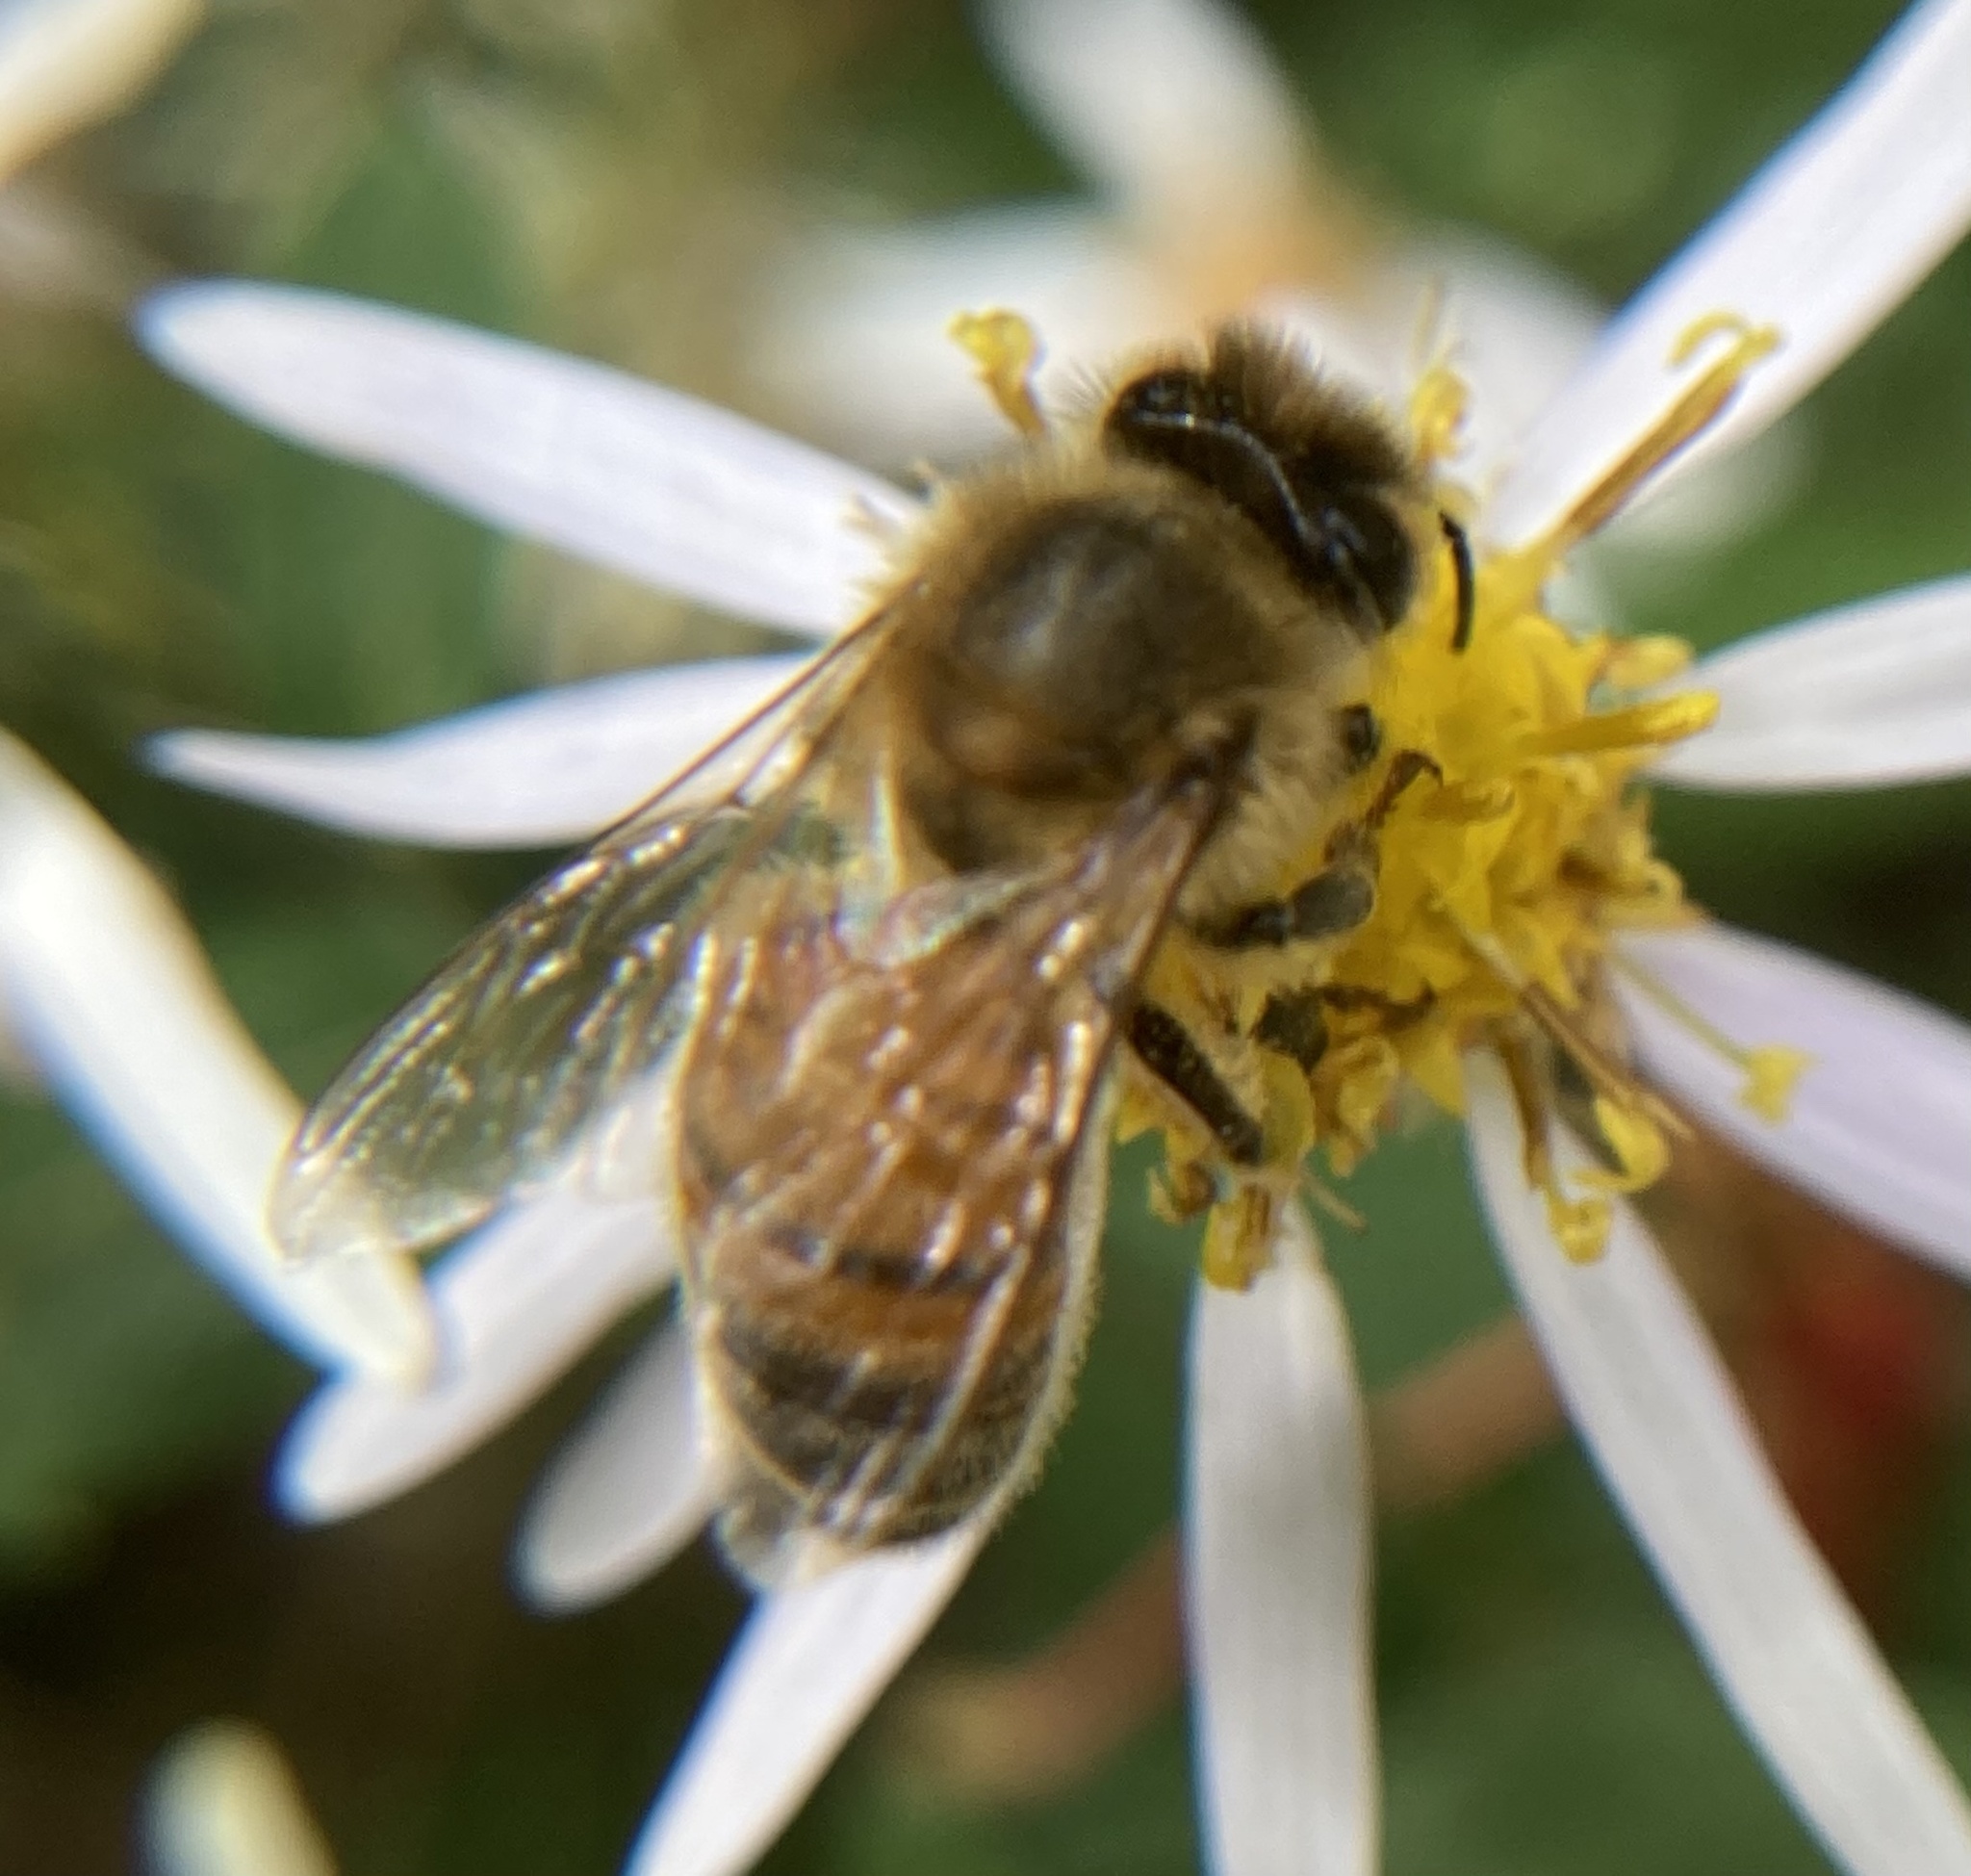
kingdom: Animalia
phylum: Arthropoda
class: Insecta
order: Hymenoptera
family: Apidae
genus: Apis
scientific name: Apis mellifera
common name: Honey bee
